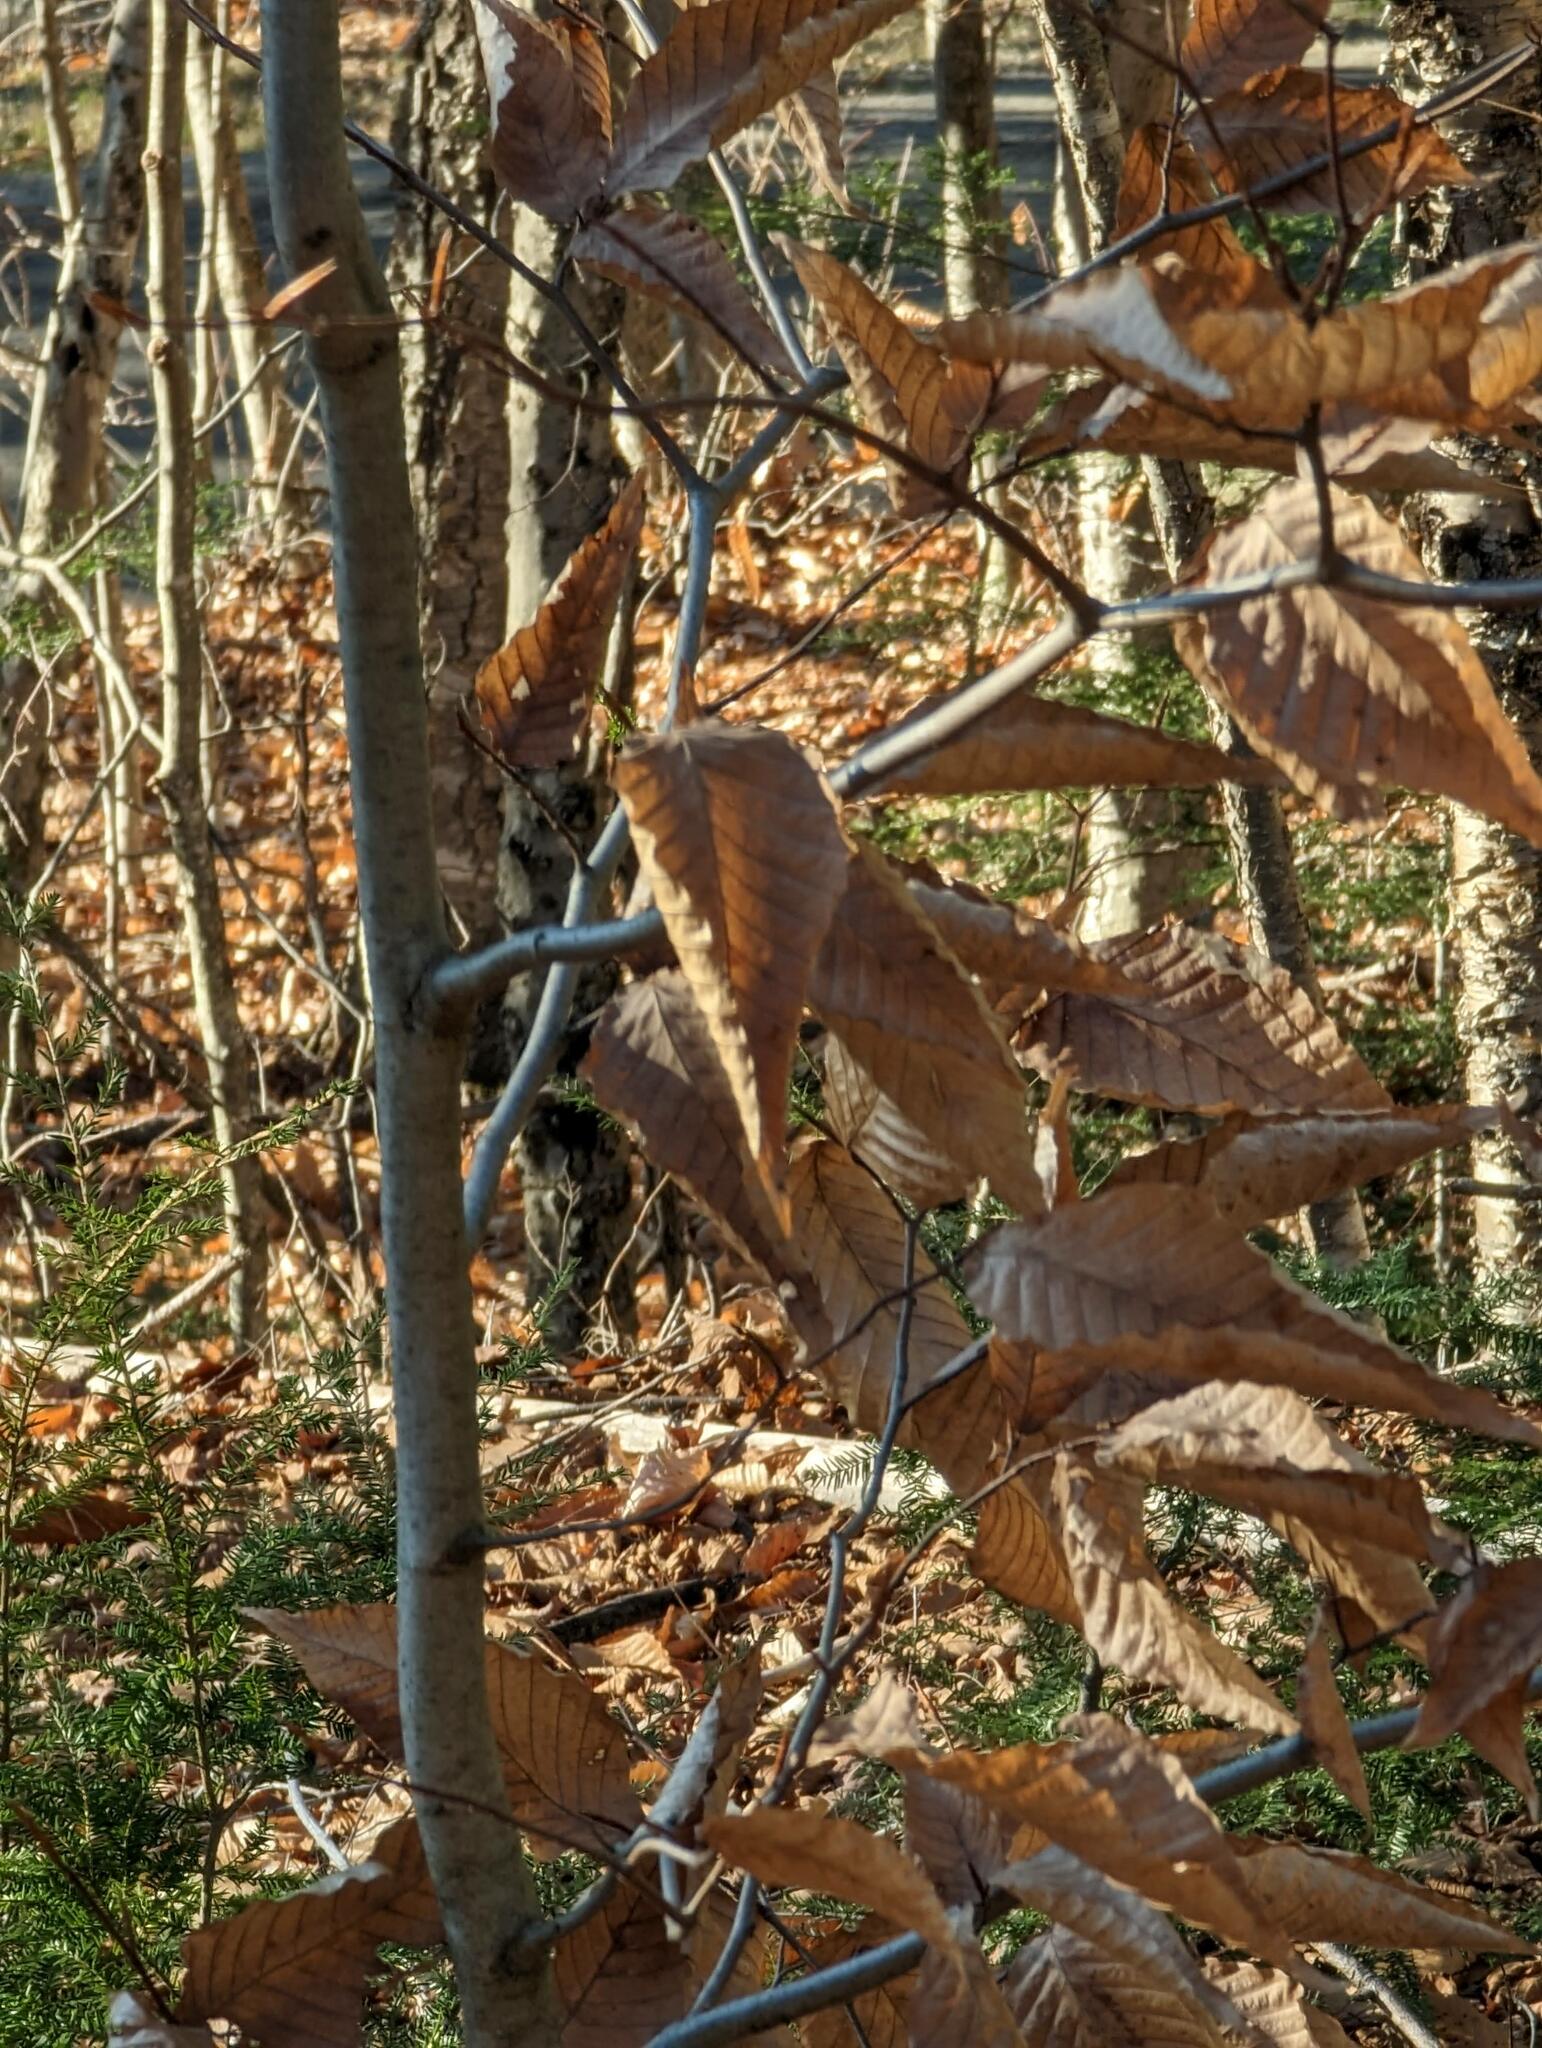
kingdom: Plantae
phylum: Tracheophyta
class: Magnoliopsida
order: Fagales
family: Fagaceae
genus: Fagus
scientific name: Fagus grandifolia
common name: American beech
